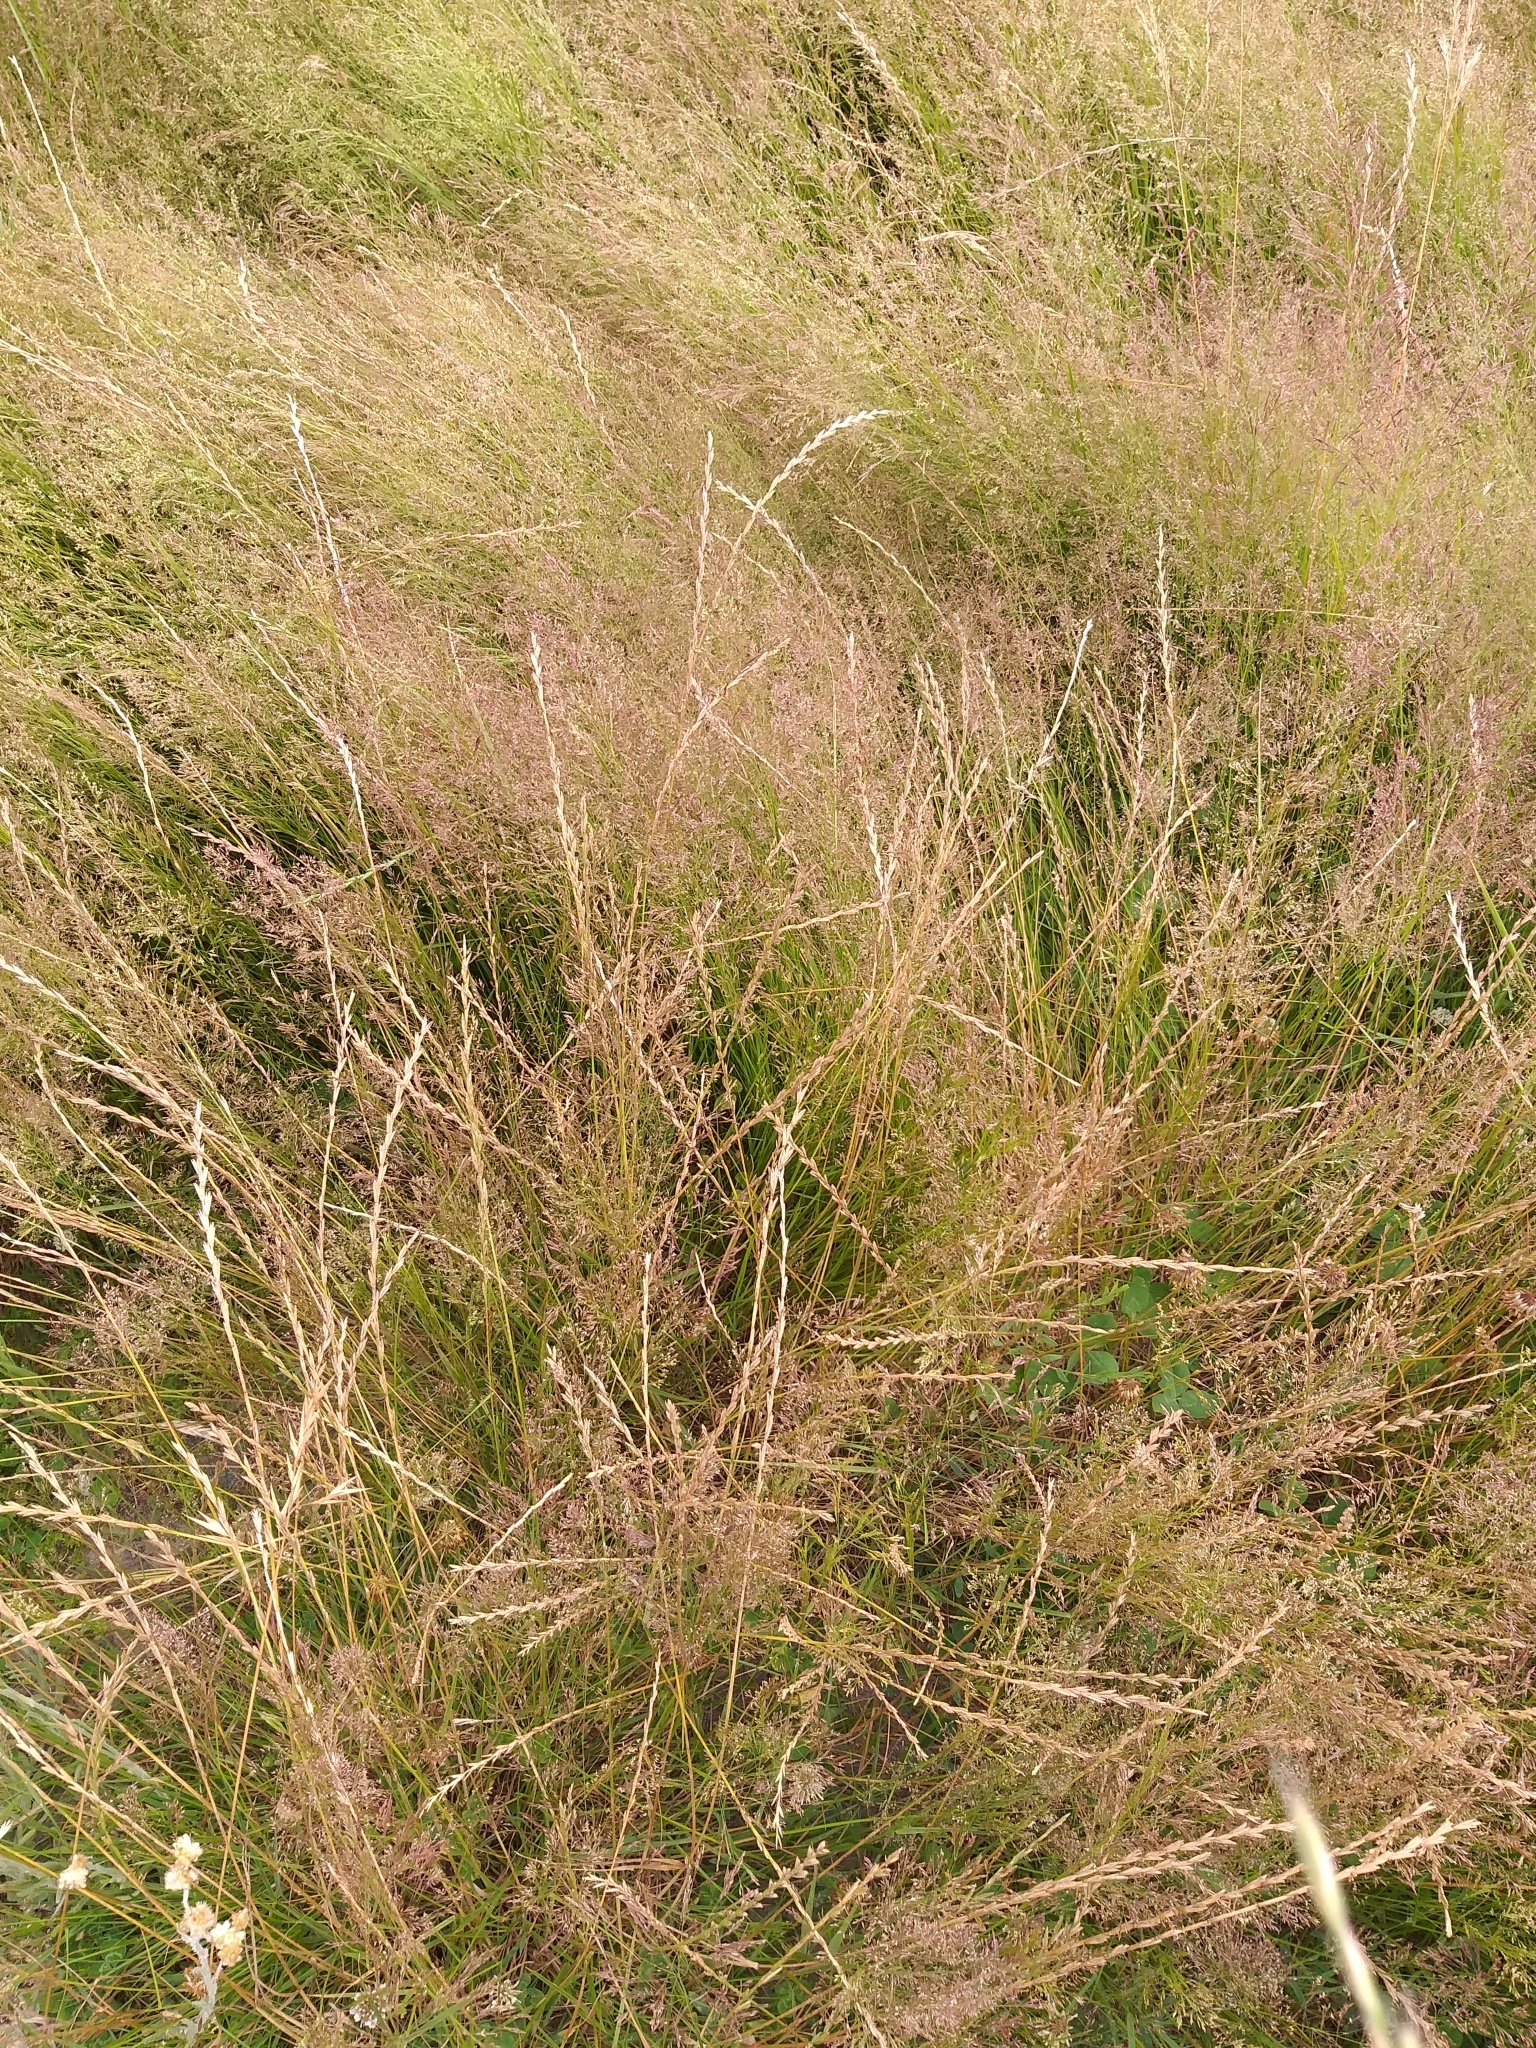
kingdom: Plantae
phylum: Tracheophyta
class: Liliopsida
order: Poales
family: Poaceae
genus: Agrostis
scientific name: Agrostis capillaris
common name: Colonial bentgrass
